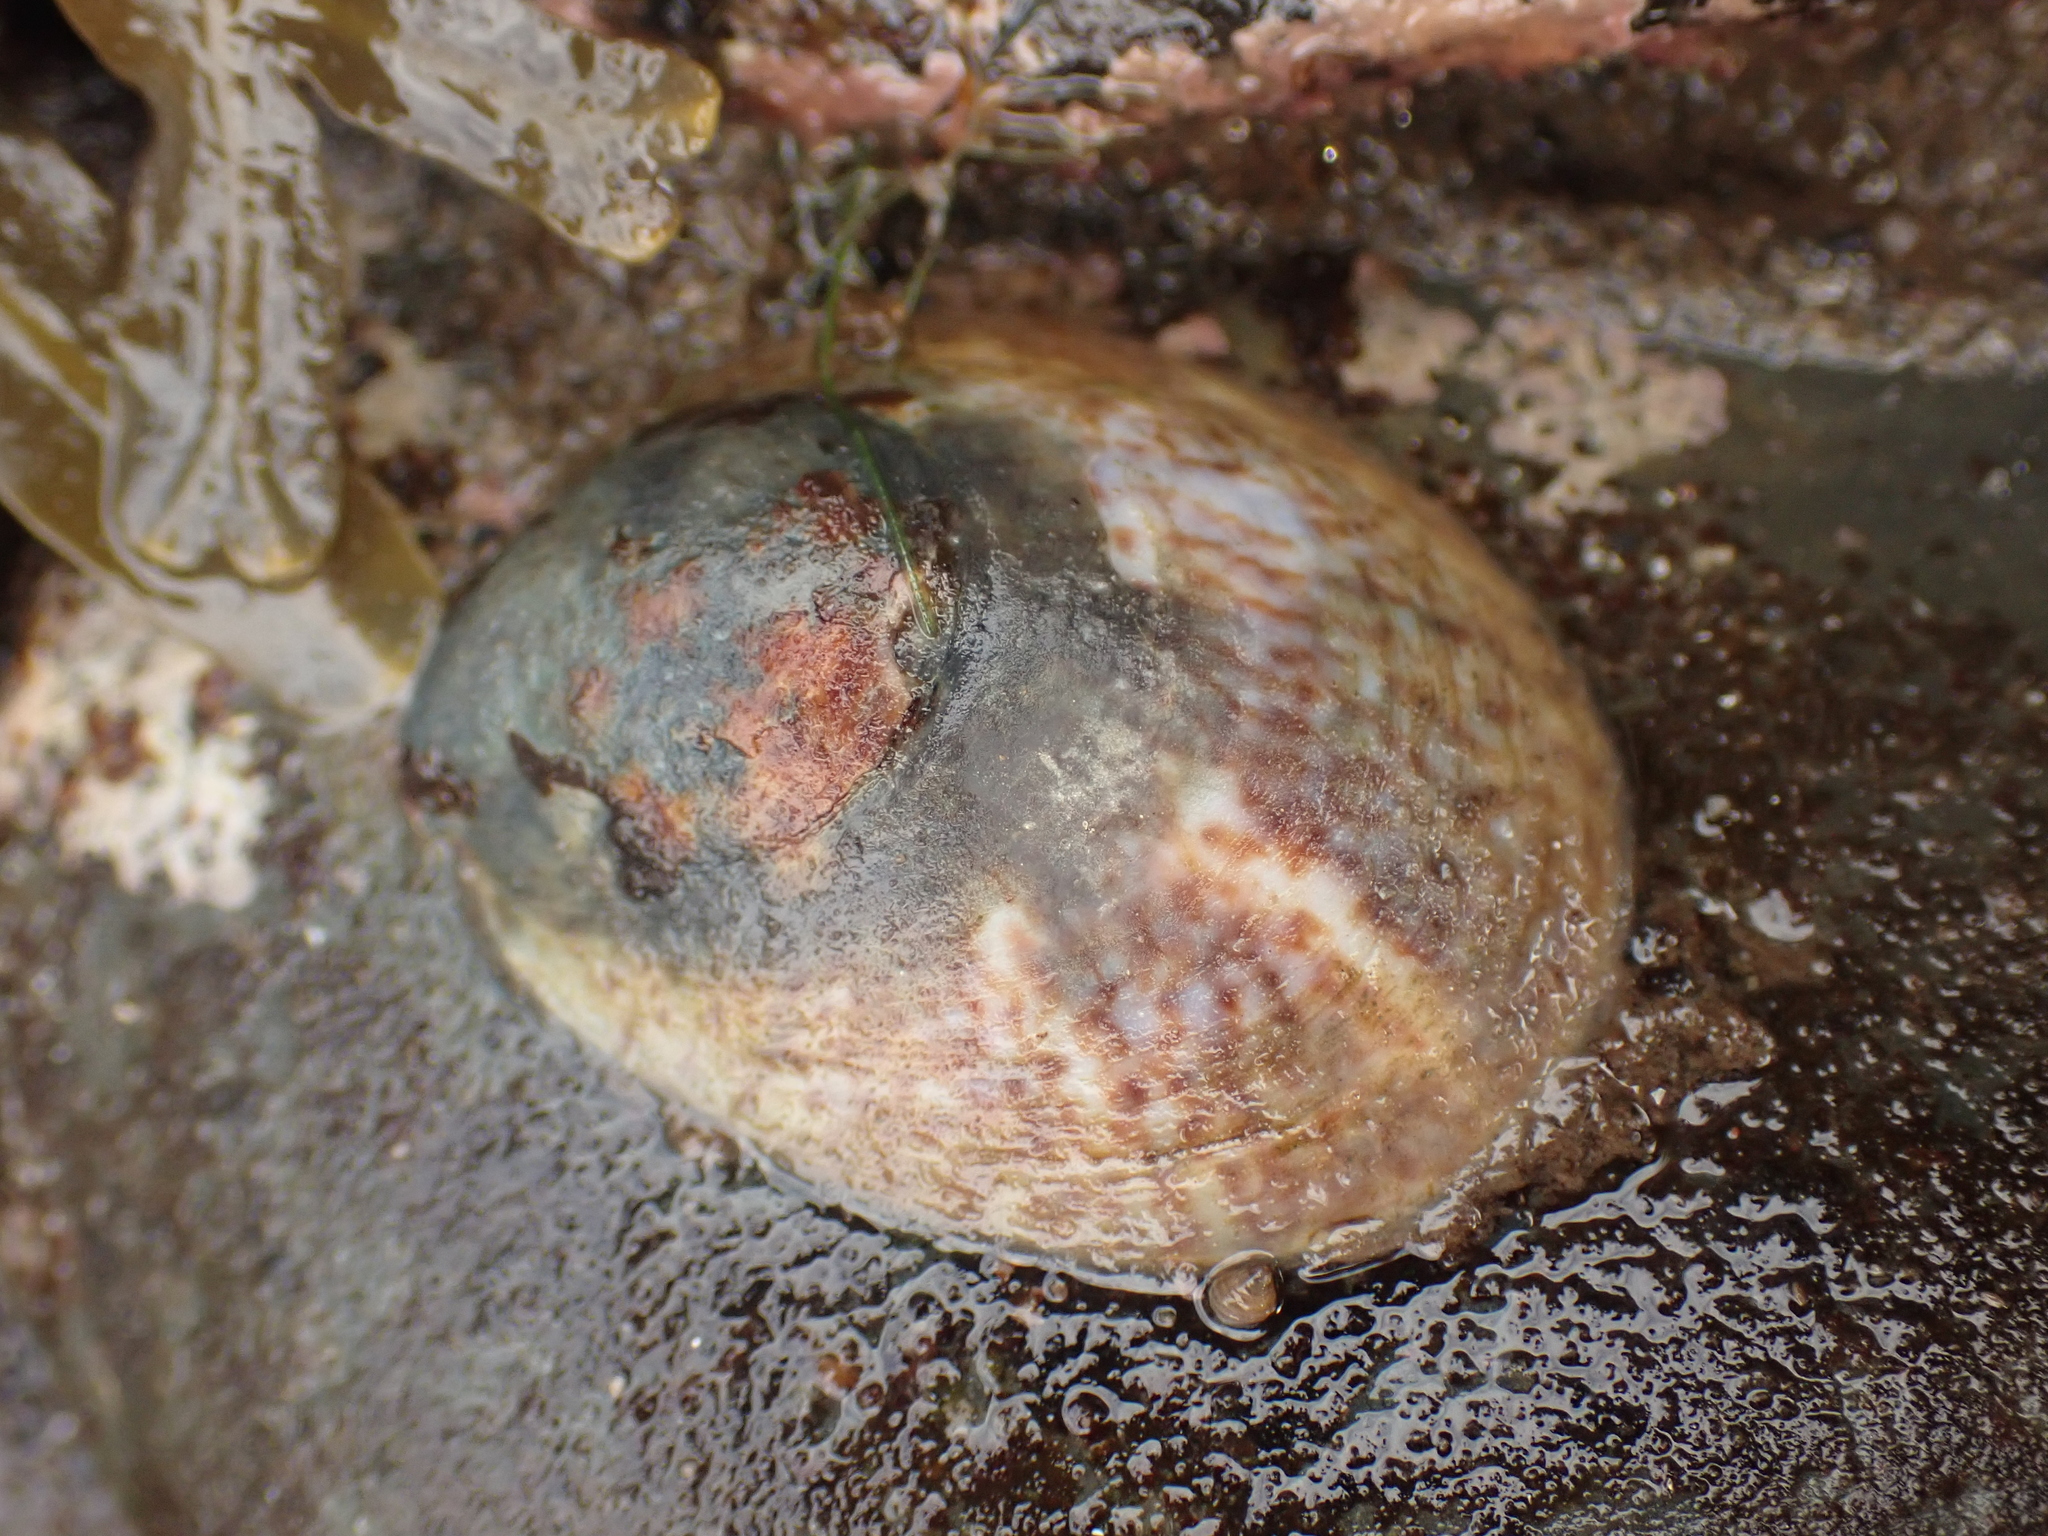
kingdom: Animalia
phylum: Mollusca
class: Gastropoda
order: Littorinimorpha
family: Calyptraeidae
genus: Crepidula
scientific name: Crepidula fornicata
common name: Slipper limpet
